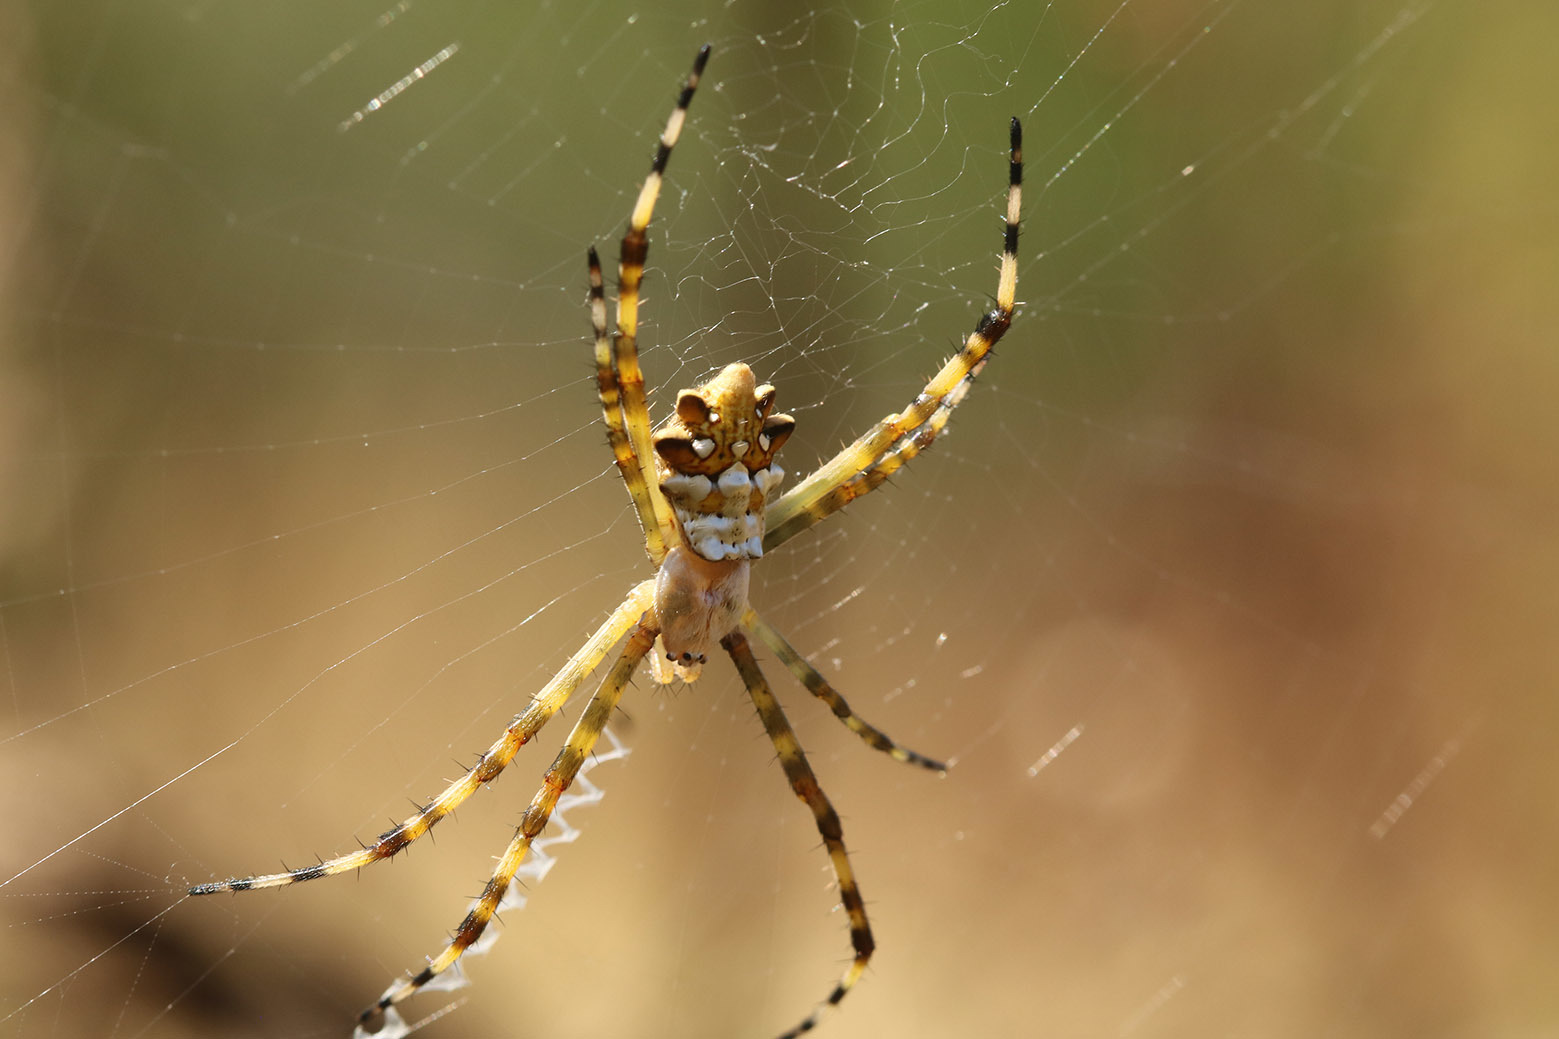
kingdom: Animalia
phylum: Arthropoda
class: Arachnida
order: Araneae
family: Araneidae
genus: Argiope
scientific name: Argiope argentata
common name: Orb weavers
